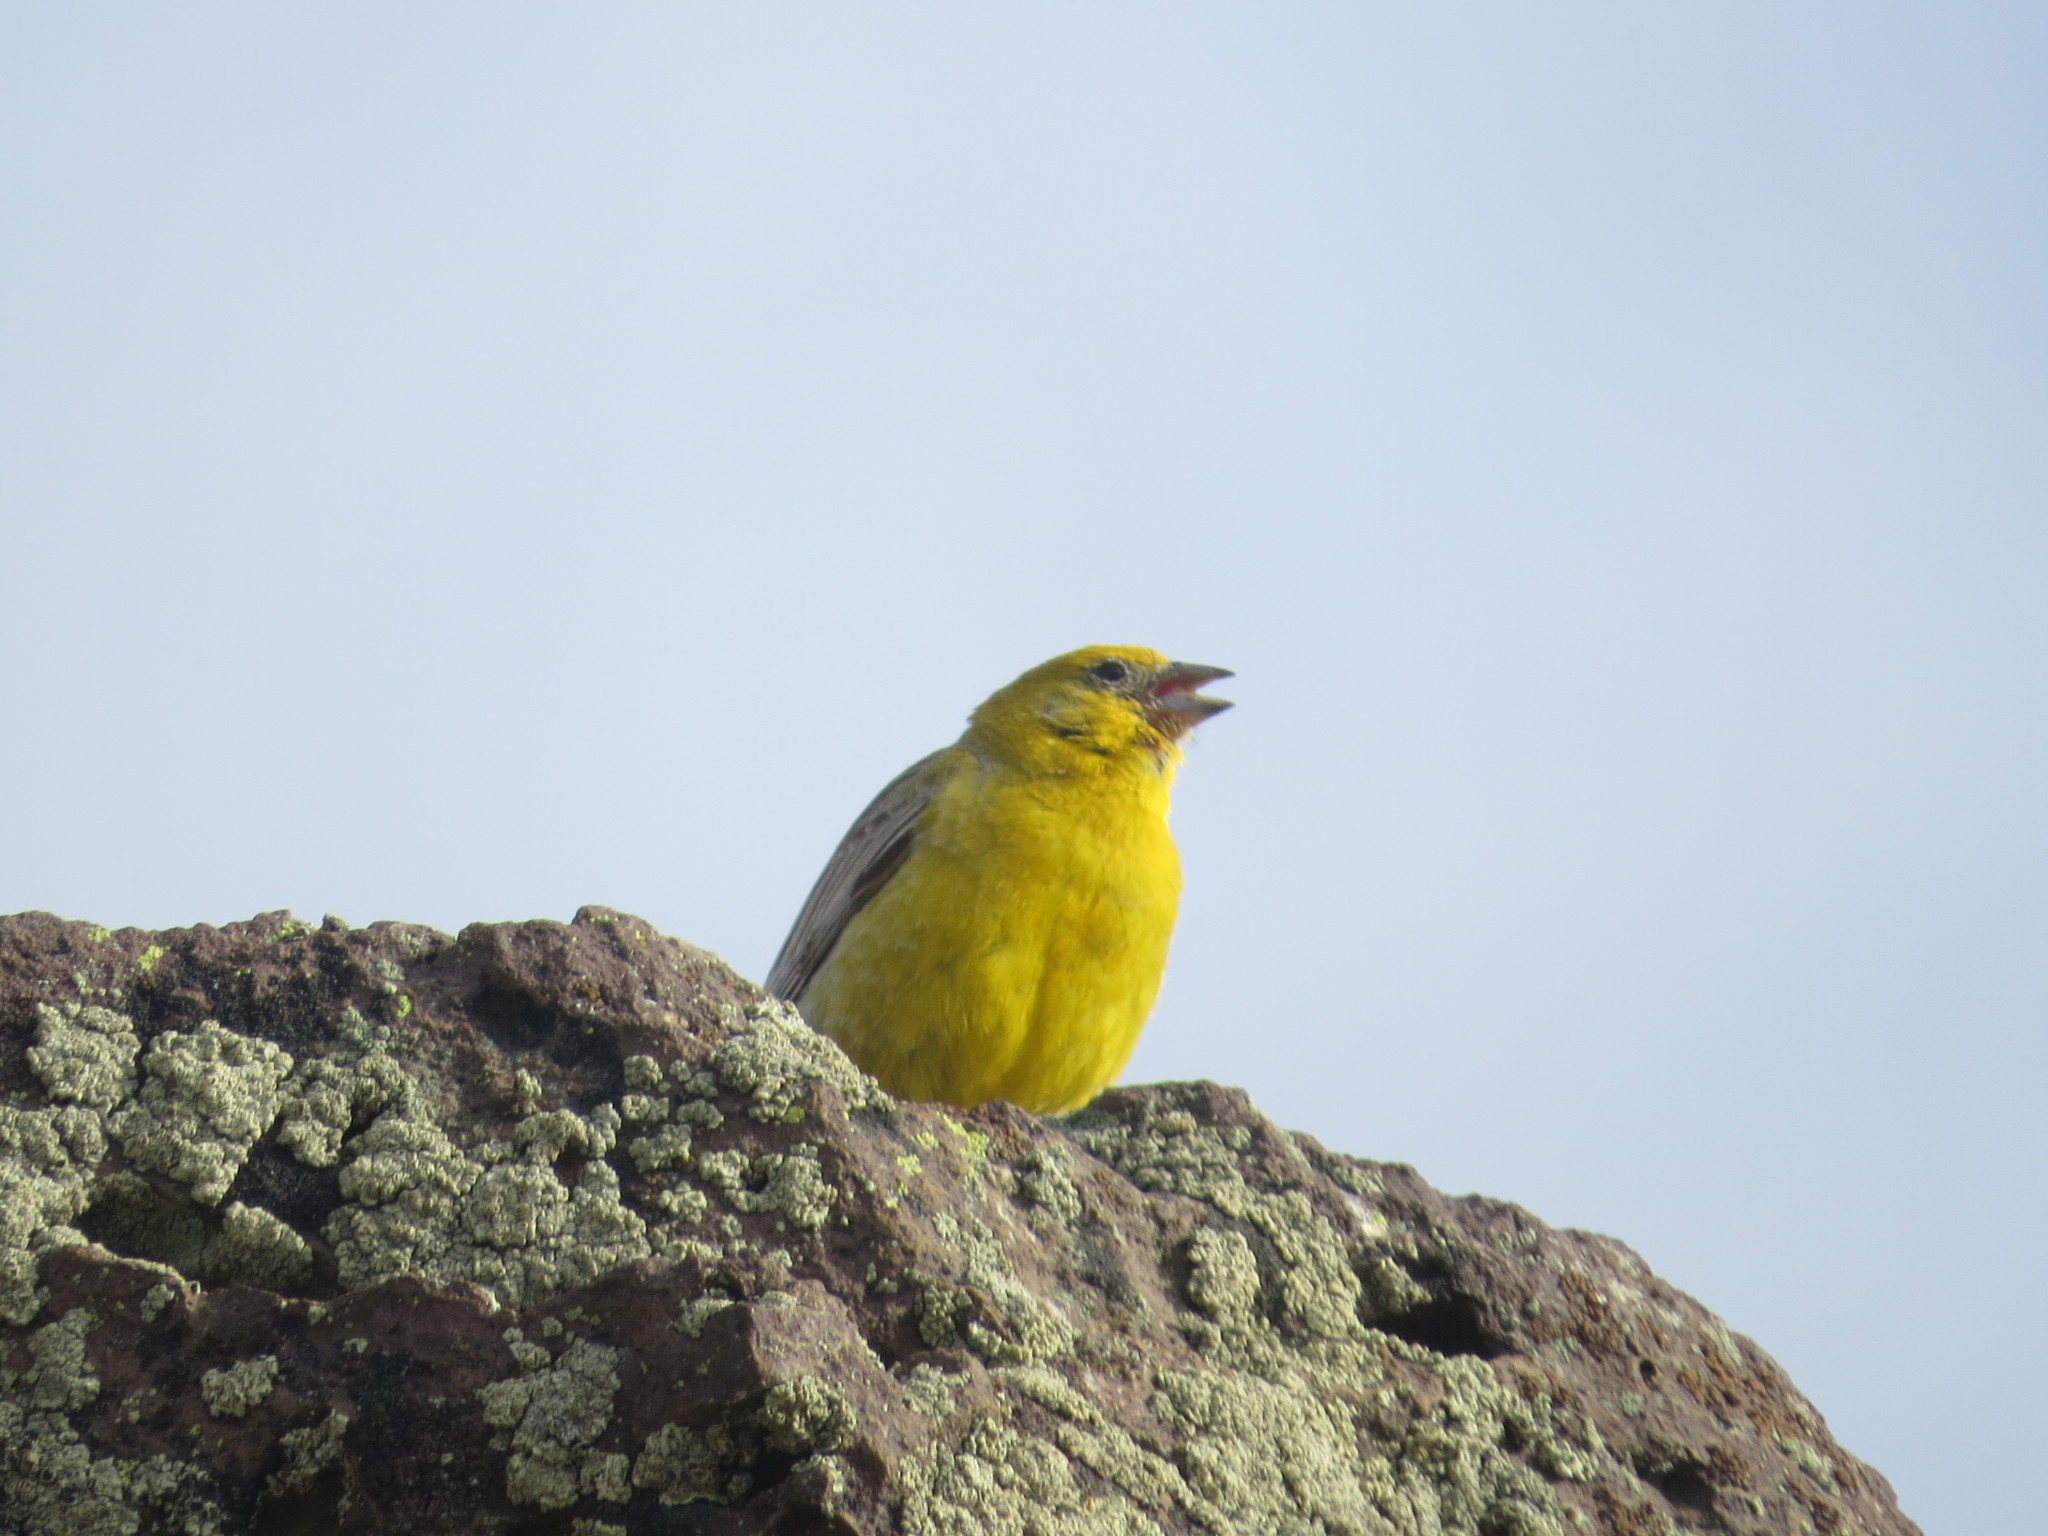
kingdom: Animalia
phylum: Chordata
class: Aves
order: Passeriformes
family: Thraupidae
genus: Sicalis
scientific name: Sicalis auriventris
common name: Greater yellow finch
